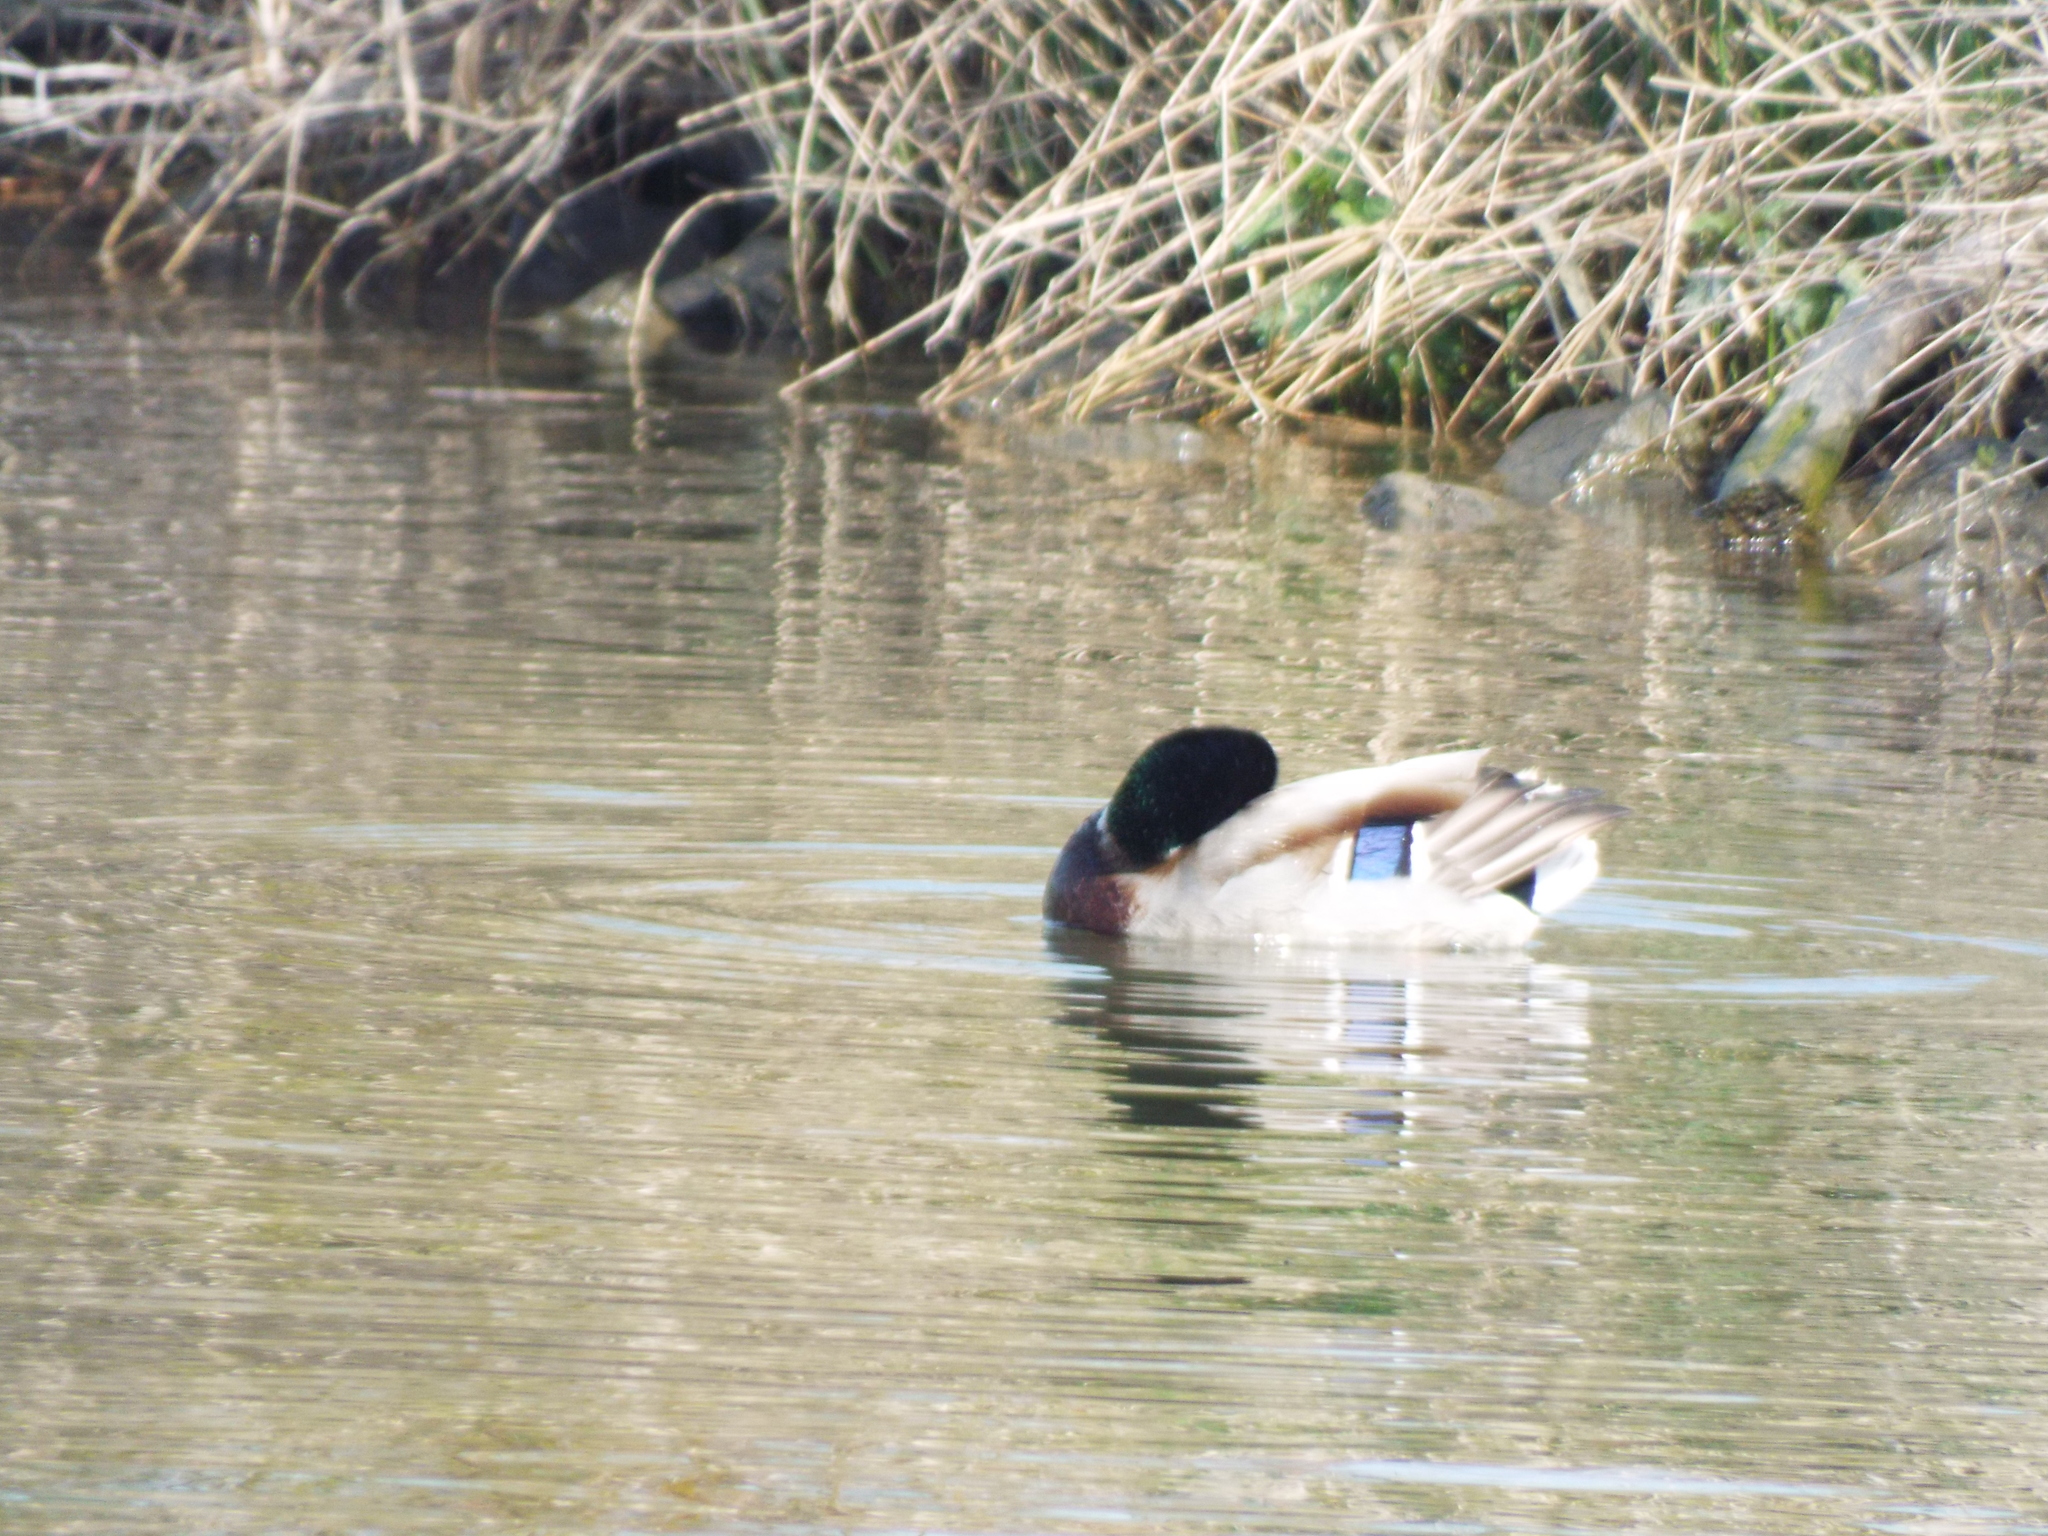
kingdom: Animalia
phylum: Chordata
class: Aves
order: Anseriformes
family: Anatidae
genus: Anas
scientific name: Anas platyrhynchos
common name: Mallard
